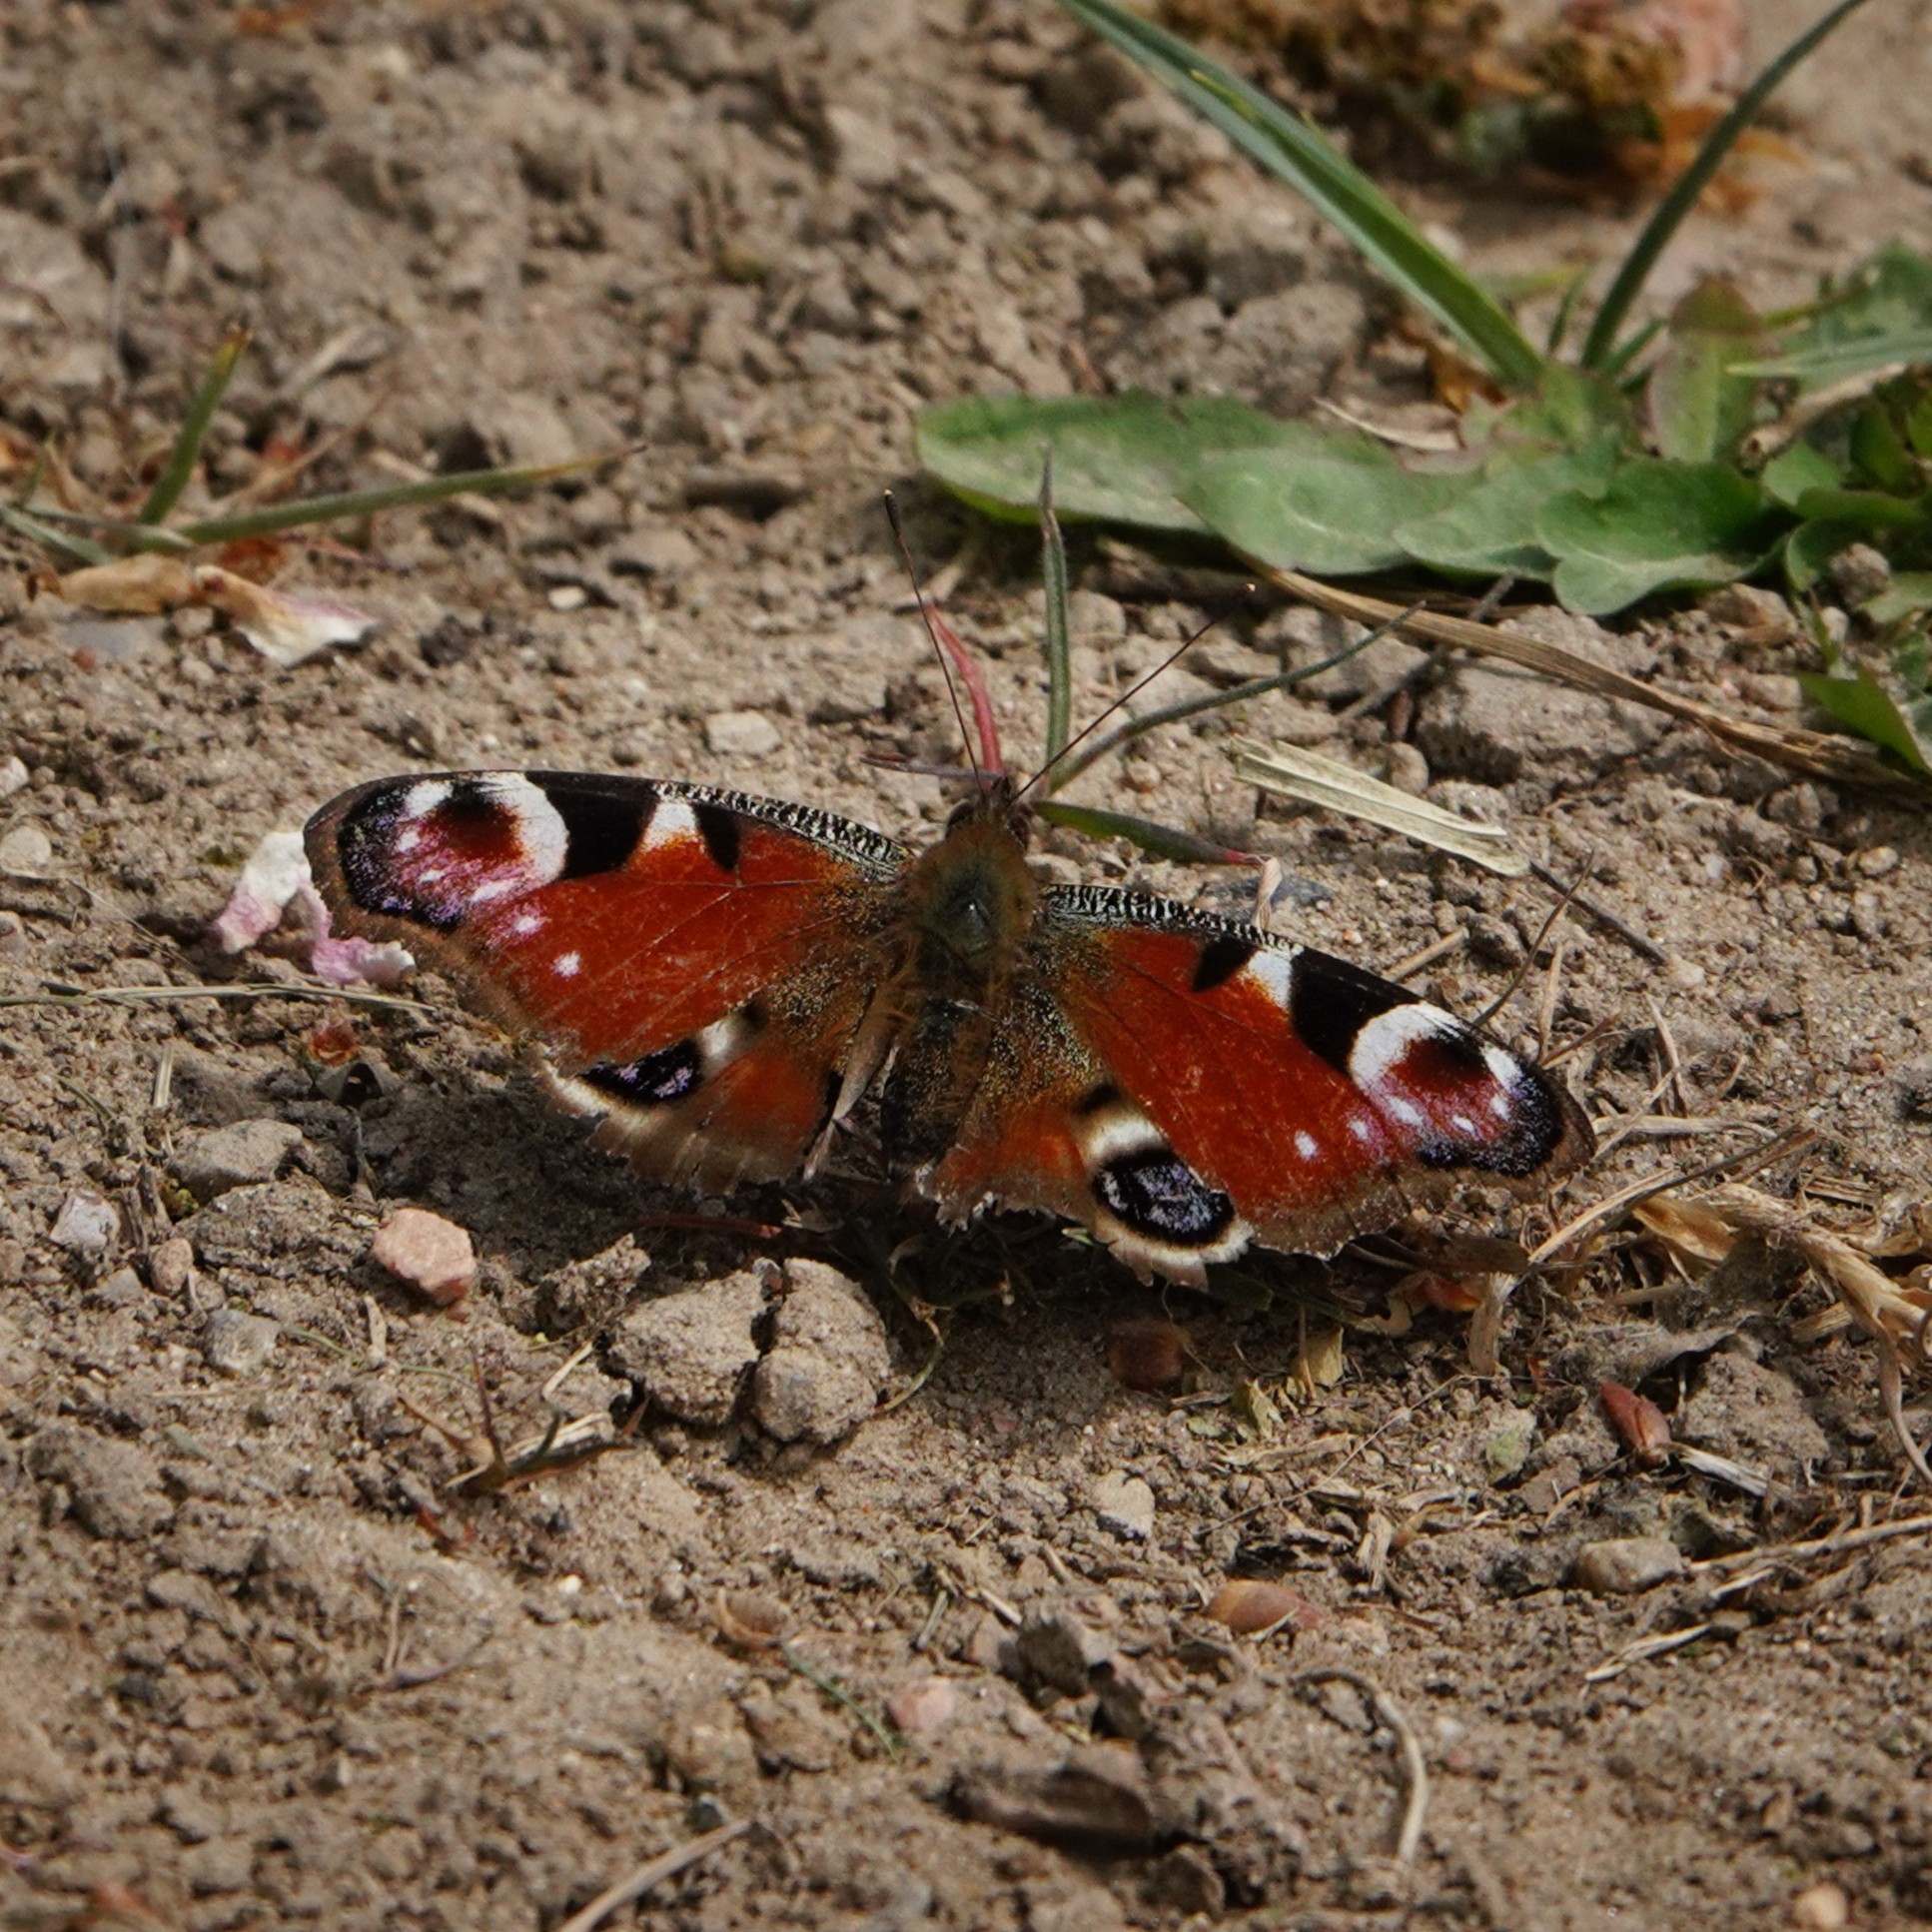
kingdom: Animalia
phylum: Arthropoda
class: Insecta
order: Lepidoptera
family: Nymphalidae
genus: Aglais
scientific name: Aglais io
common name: Peacock
